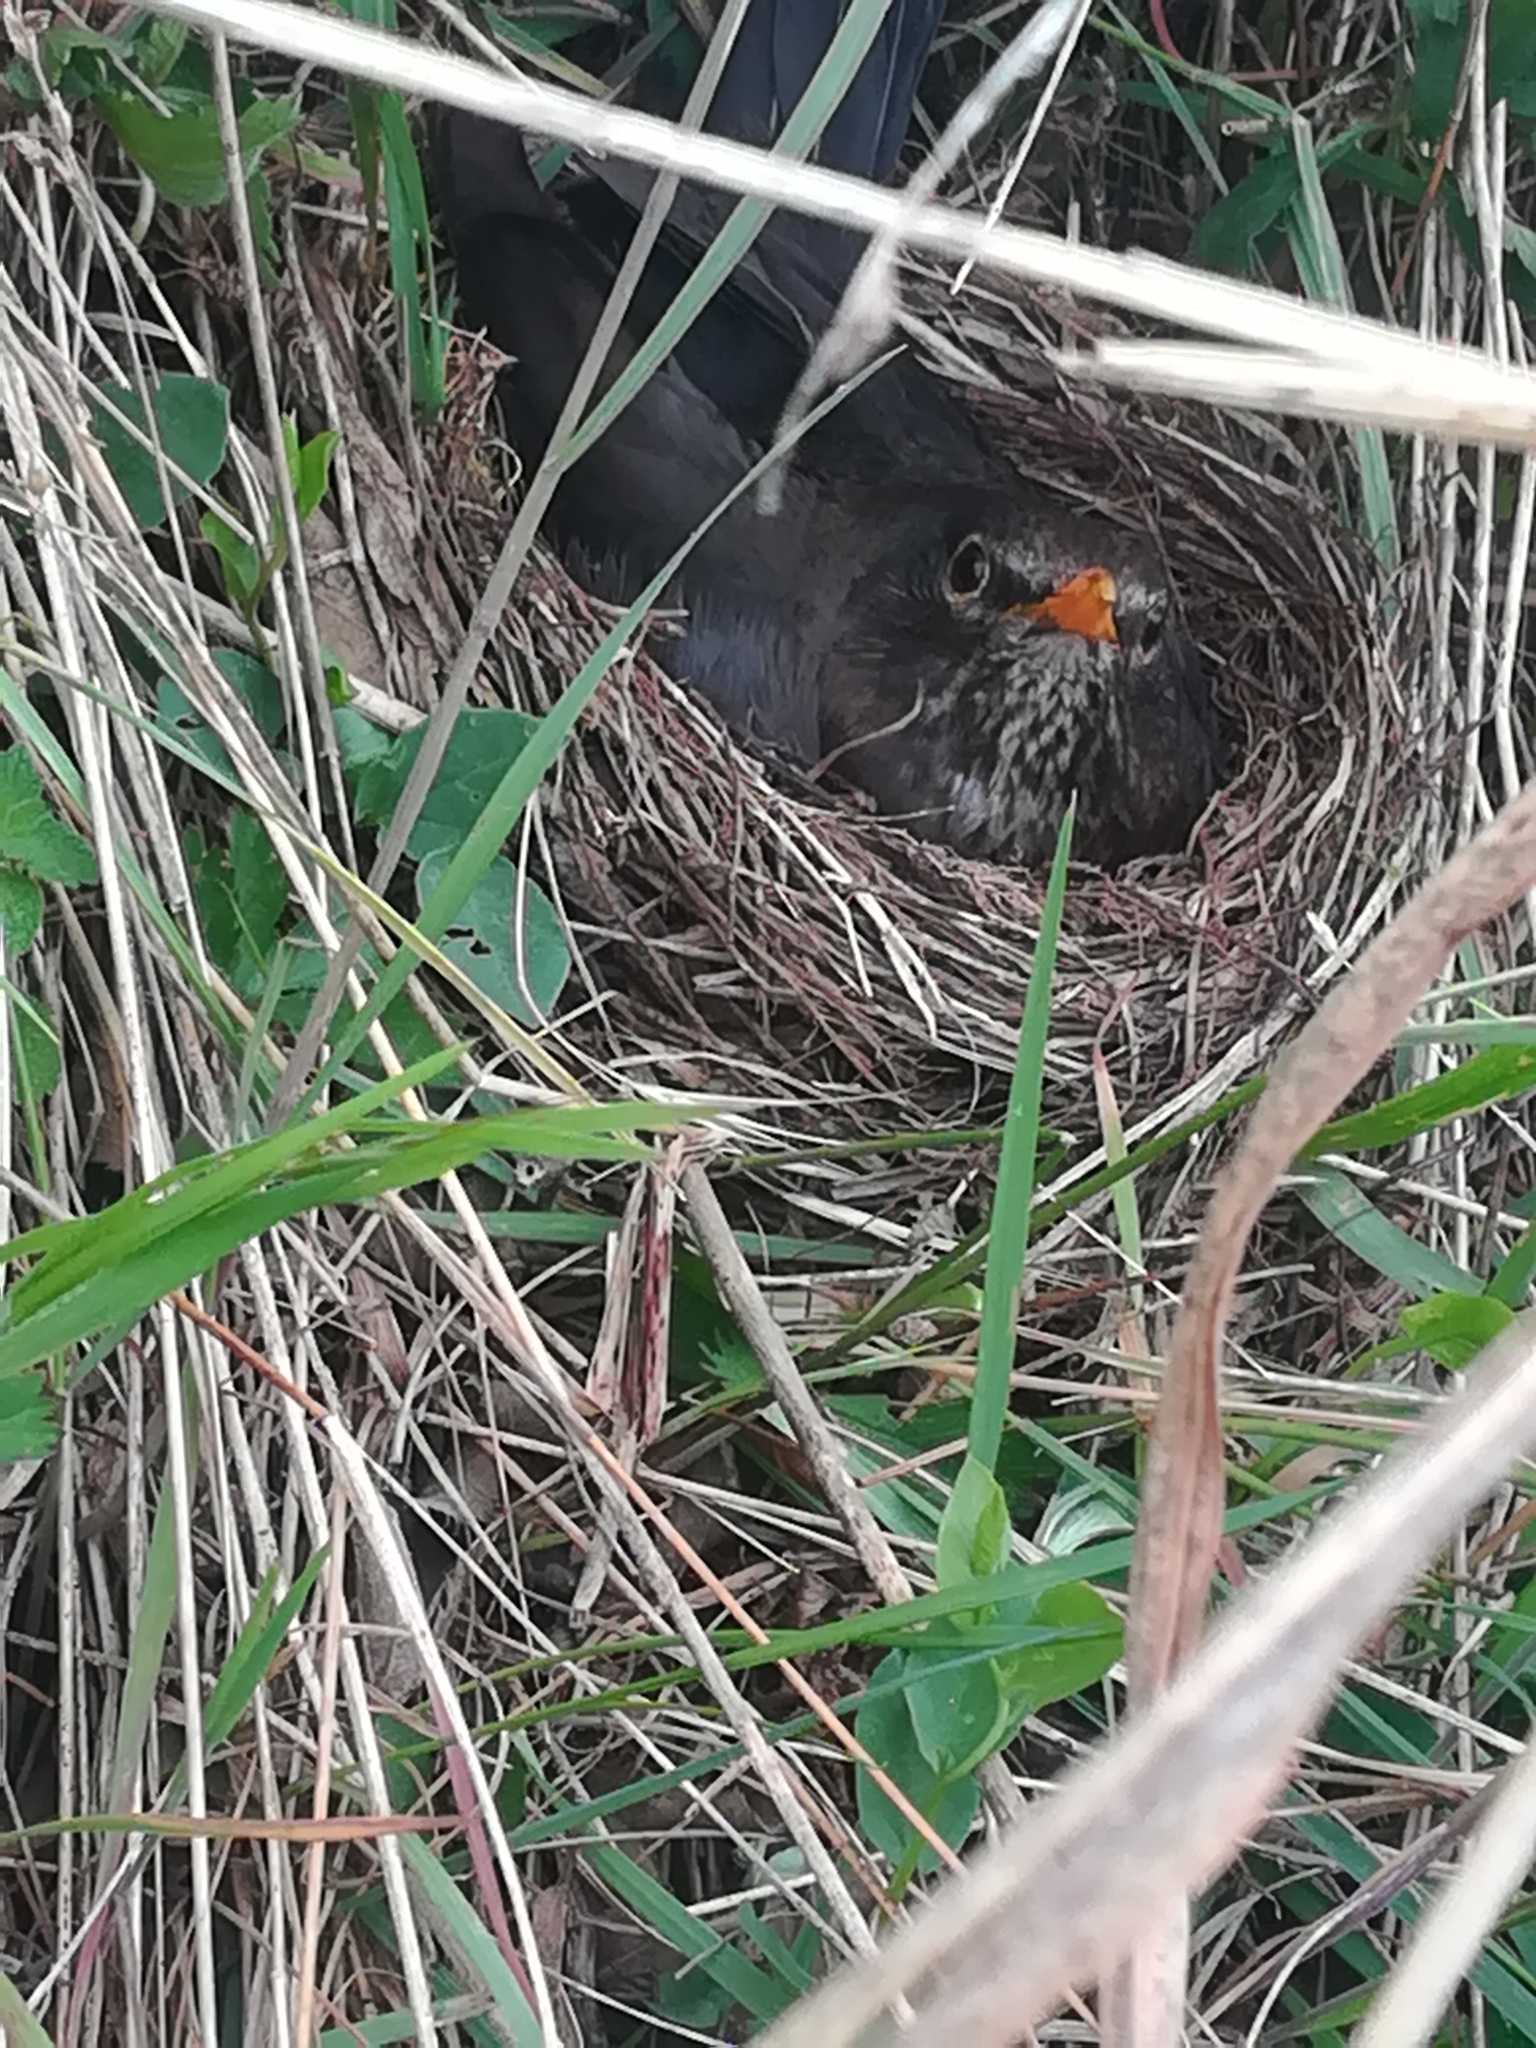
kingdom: Animalia
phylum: Chordata
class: Aves
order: Passeriformes
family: Turdidae
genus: Turdus
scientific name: Turdus merula
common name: Common blackbird
